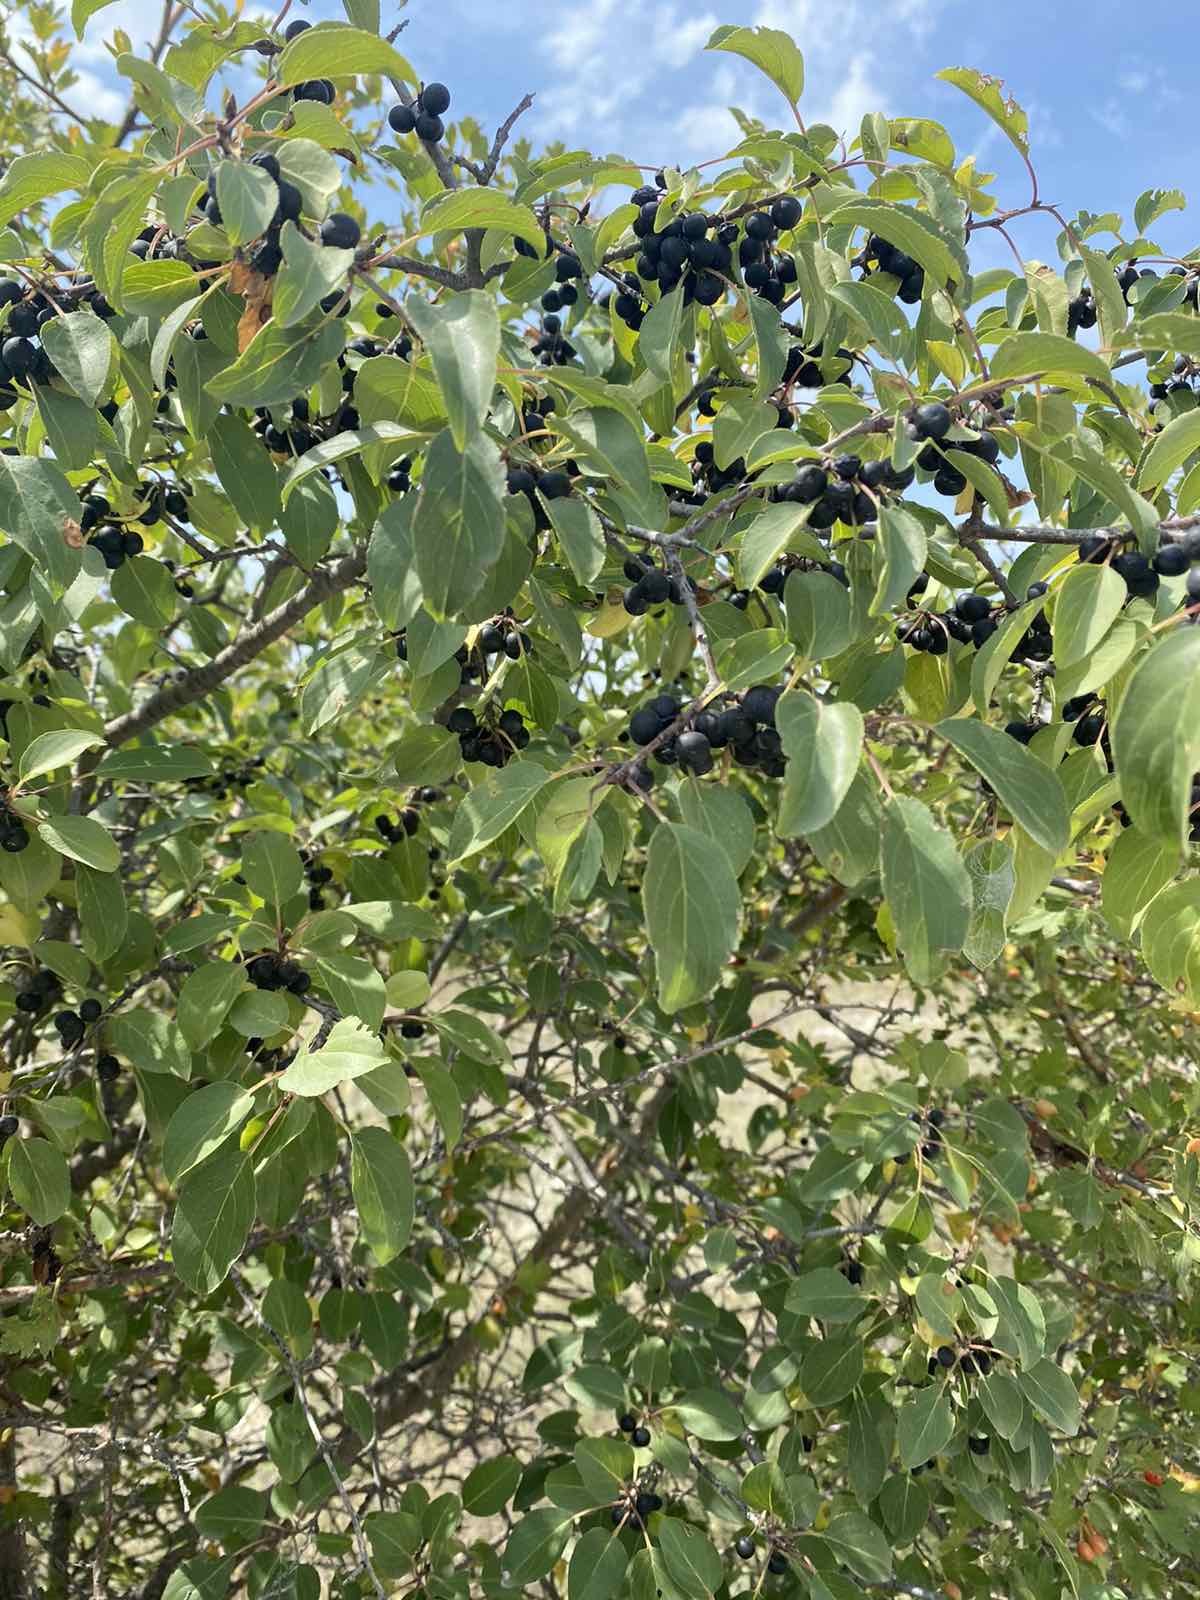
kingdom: Plantae
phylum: Tracheophyta
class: Magnoliopsida
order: Rosales
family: Rhamnaceae
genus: Rhamnus
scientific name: Rhamnus cathartica
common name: Common buckthorn
